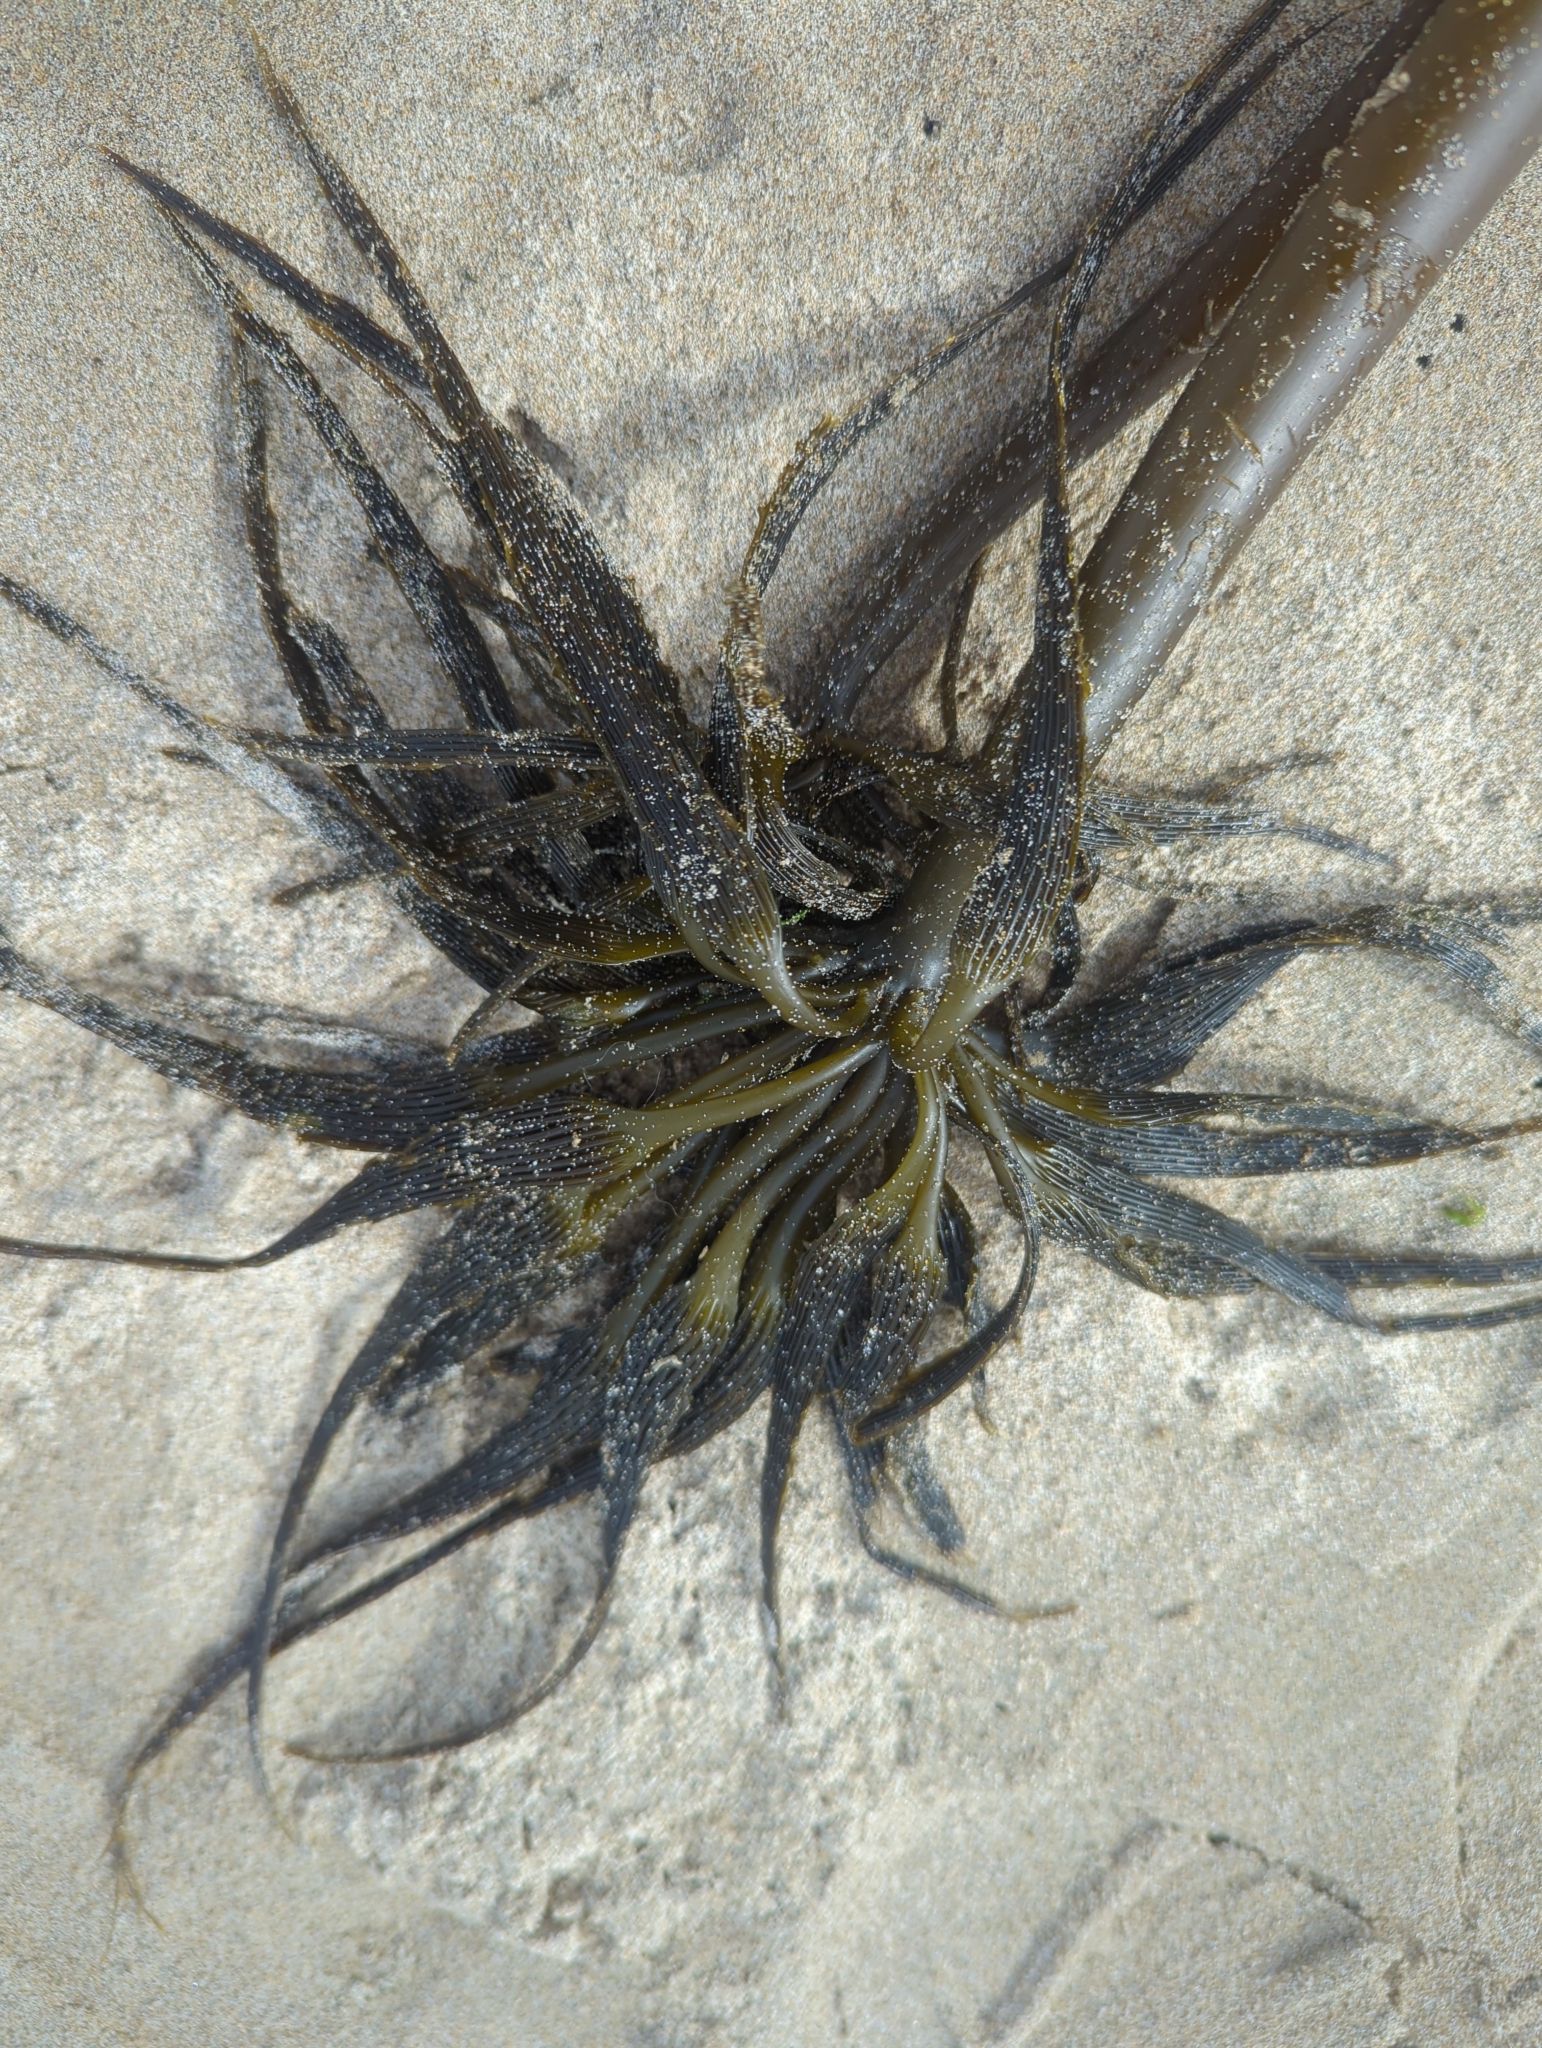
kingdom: Chromista
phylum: Ochrophyta
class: Phaeophyceae
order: Laminariales
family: Laminariaceae
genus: Postelsia
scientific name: Postelsia palmiformis
